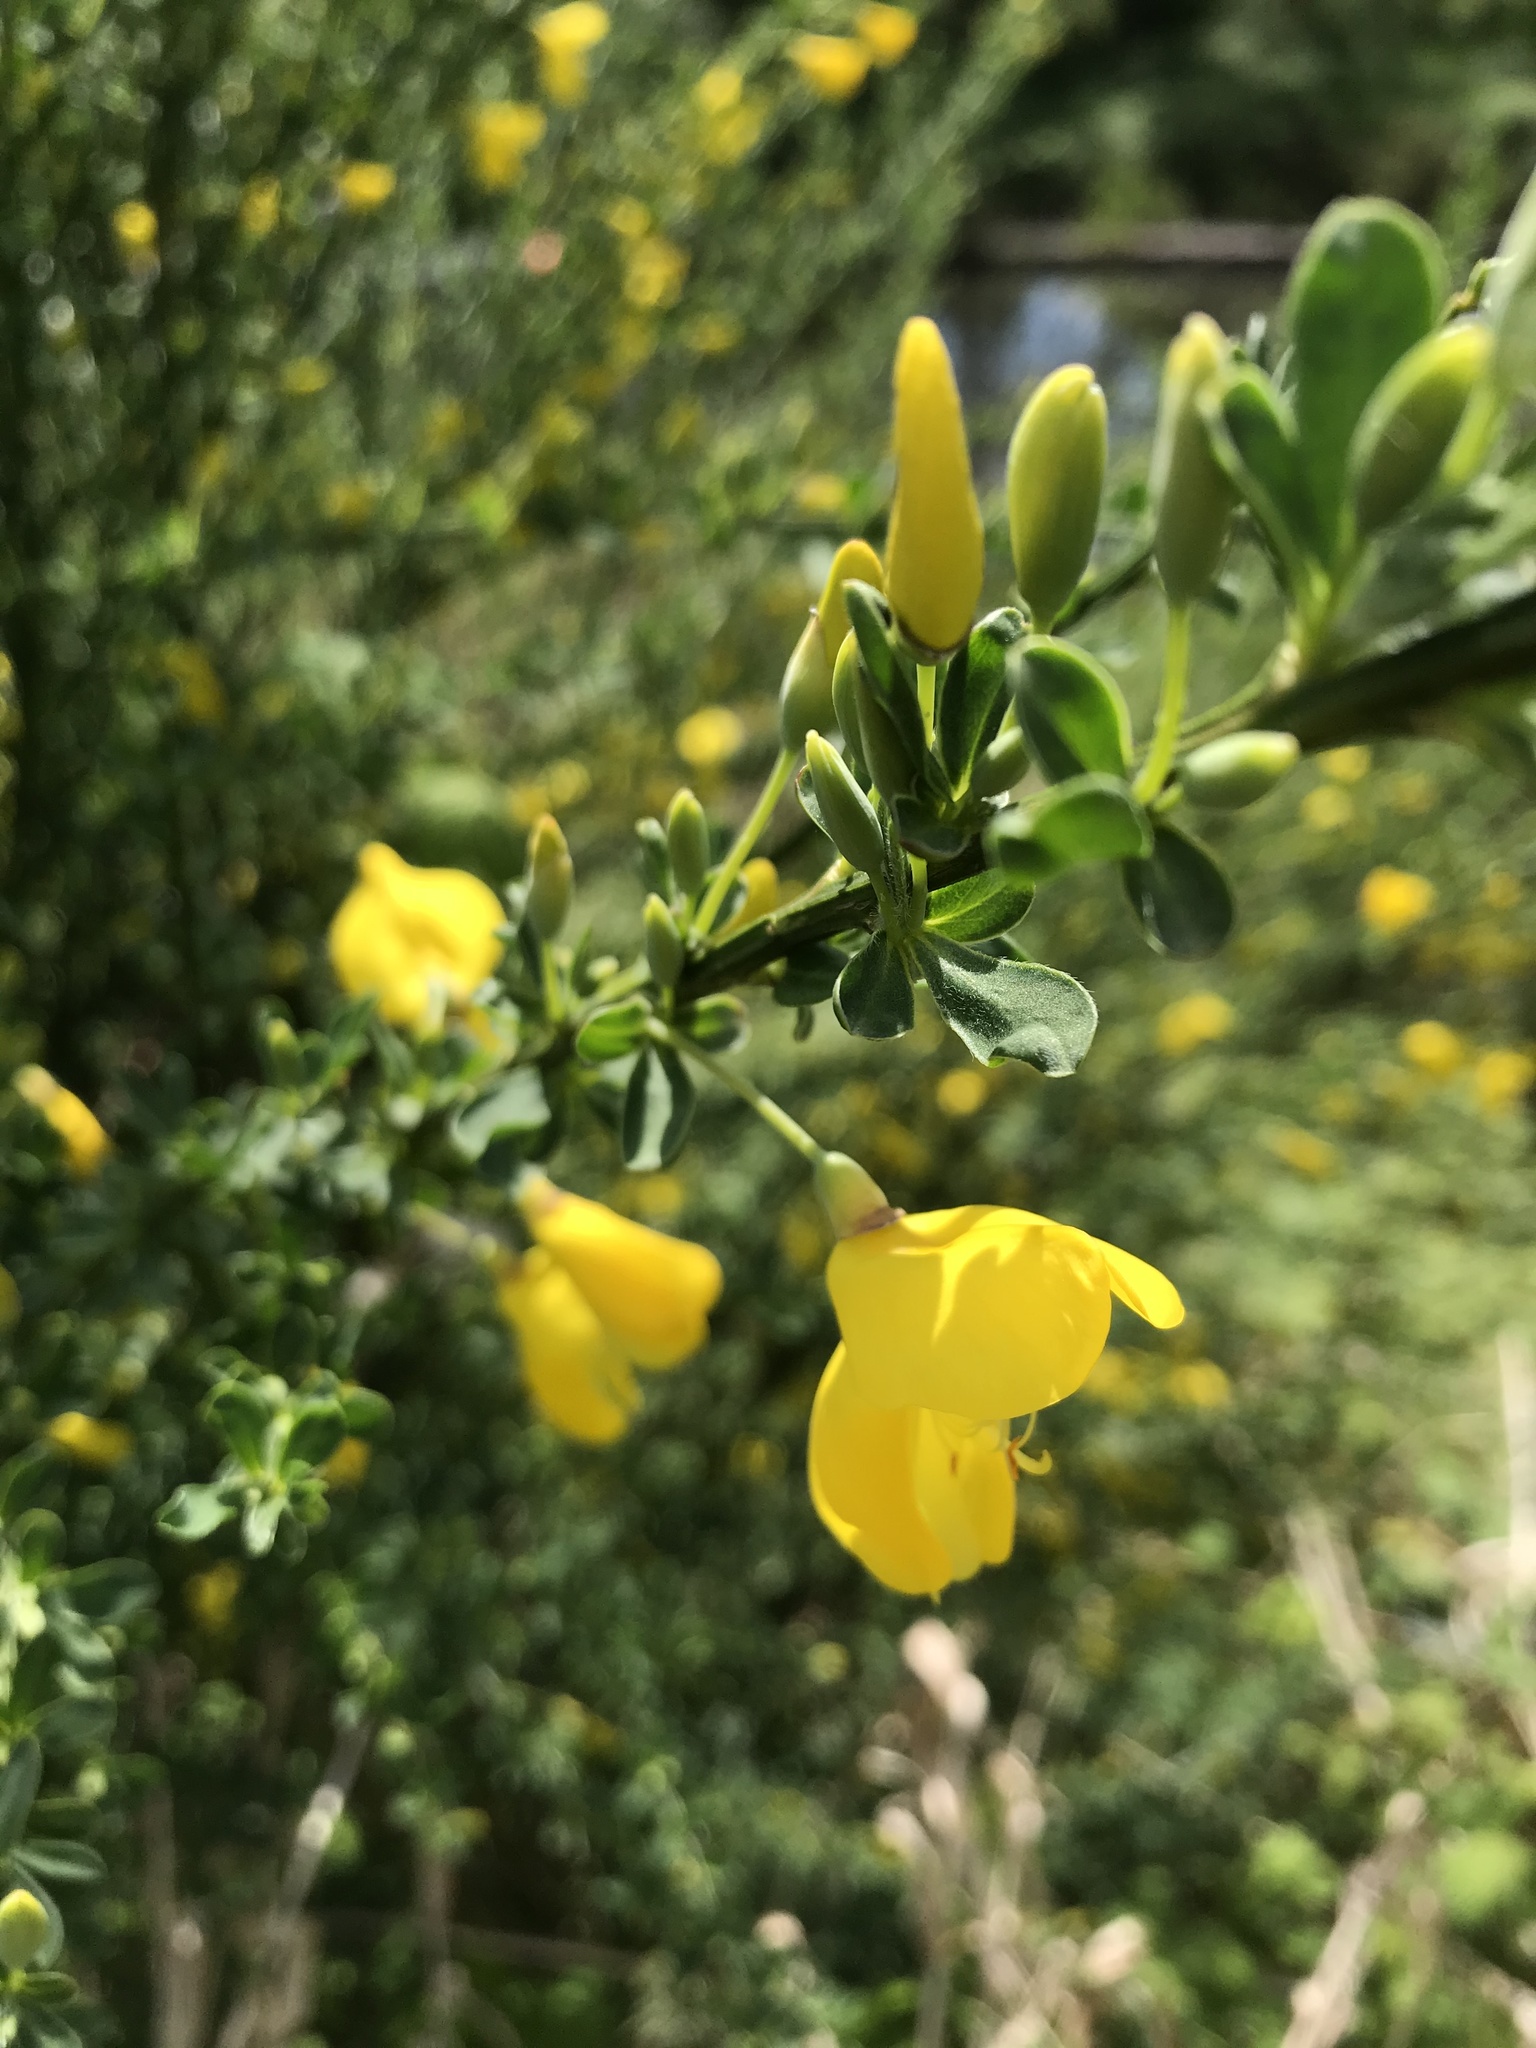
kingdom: Plantae
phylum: Tracheophyta
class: Magnoliopsida
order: Fabales
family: Fabaceae
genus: Cytisus
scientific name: Cytisus scoparius
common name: Scotch broom
